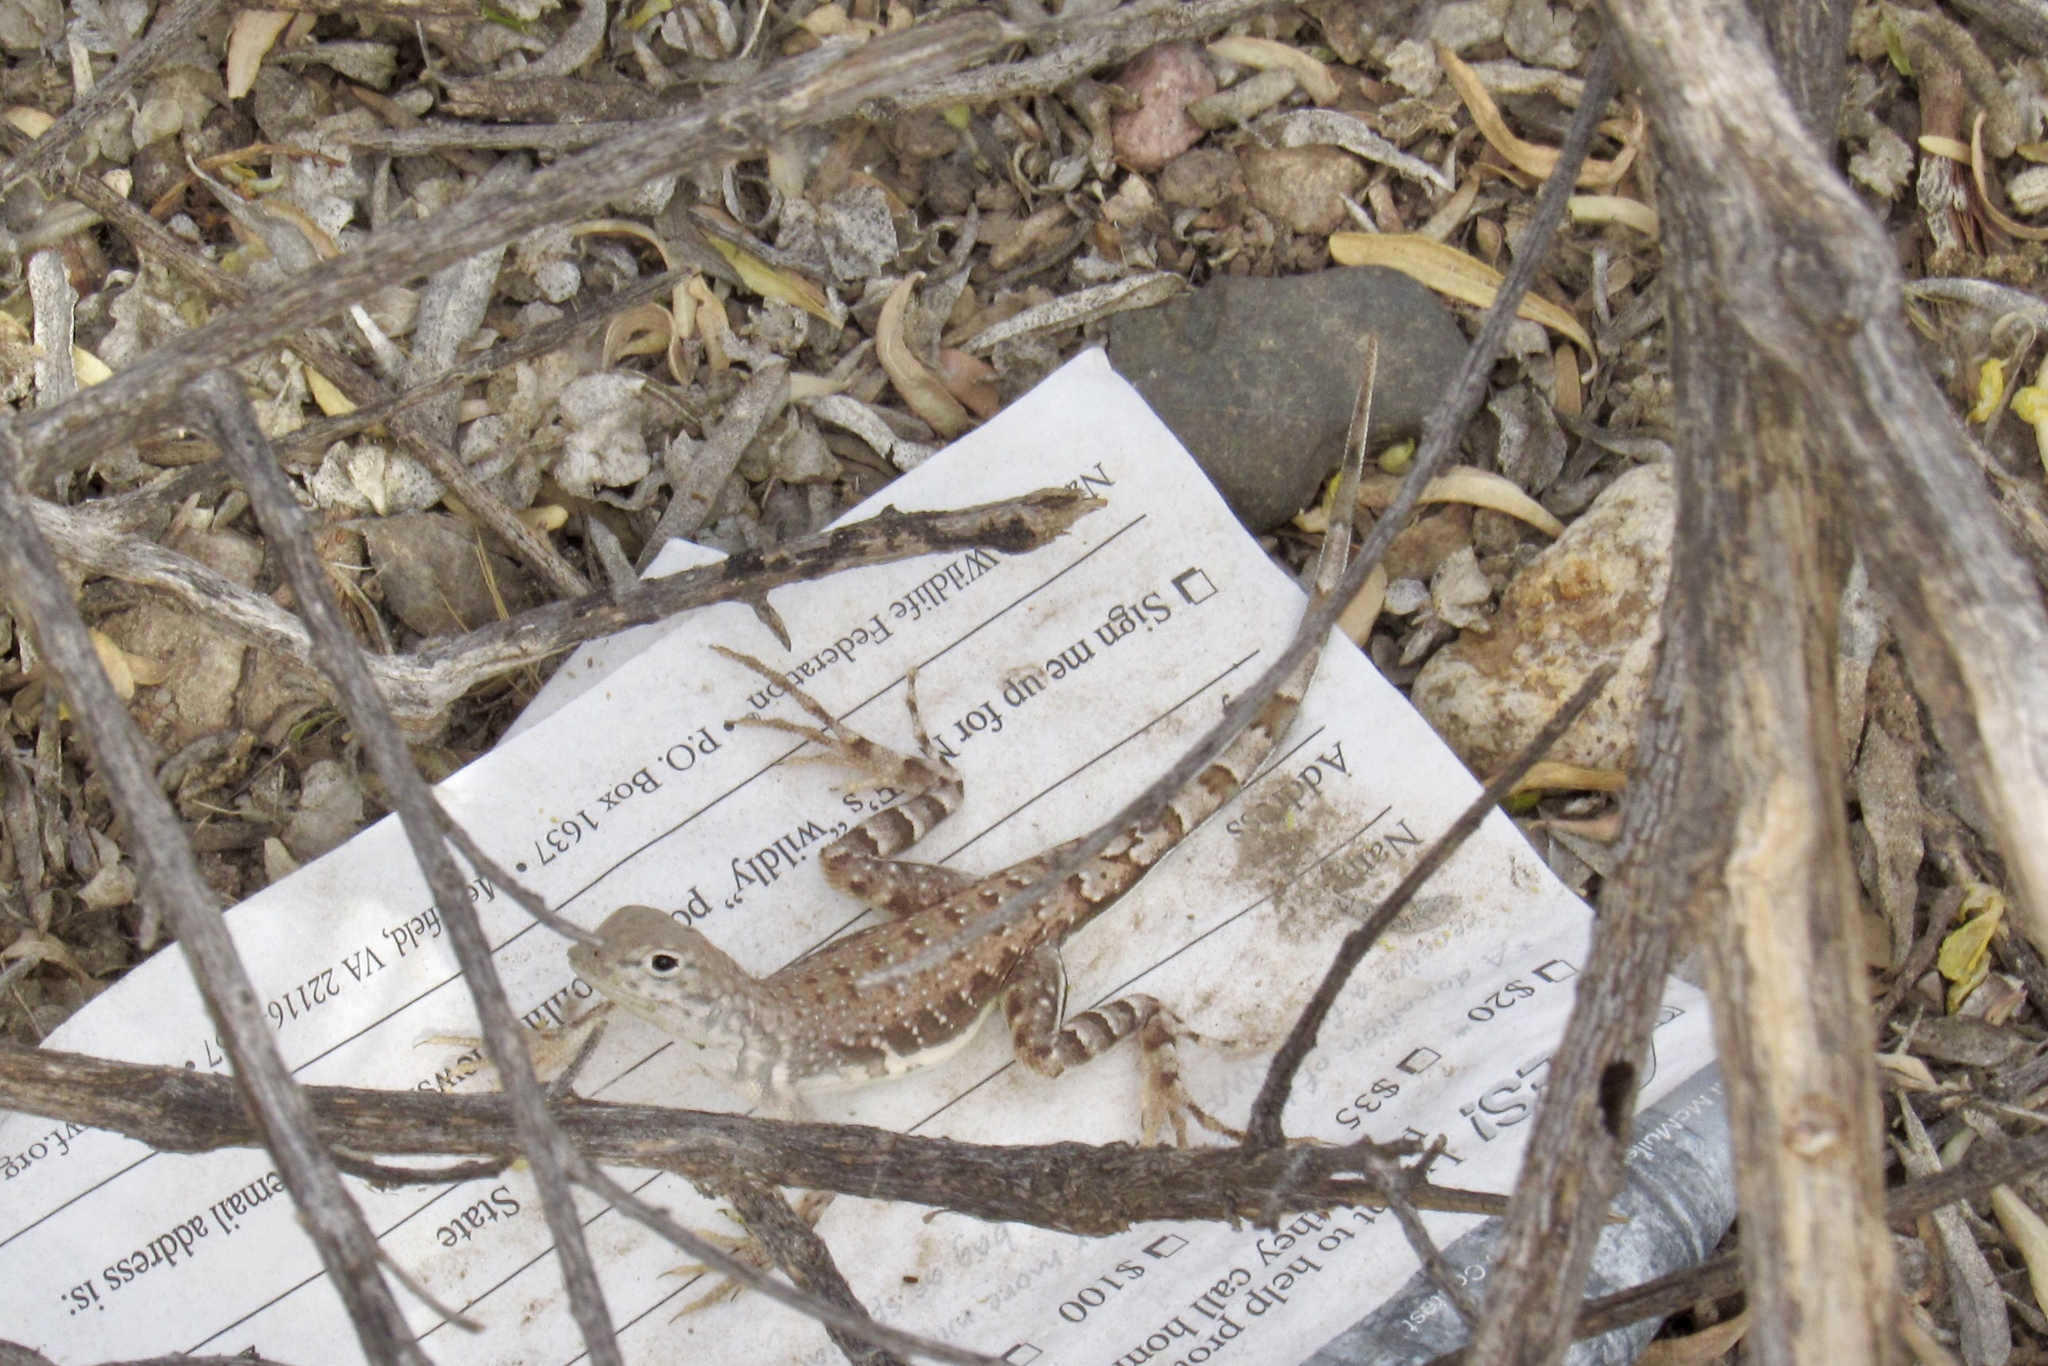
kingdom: Animalia
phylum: Chordata
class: Squamata
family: Phrynosomatidae
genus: Callisaurus
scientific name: Callisaurus draconoides
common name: Zebra-tailed lizard
